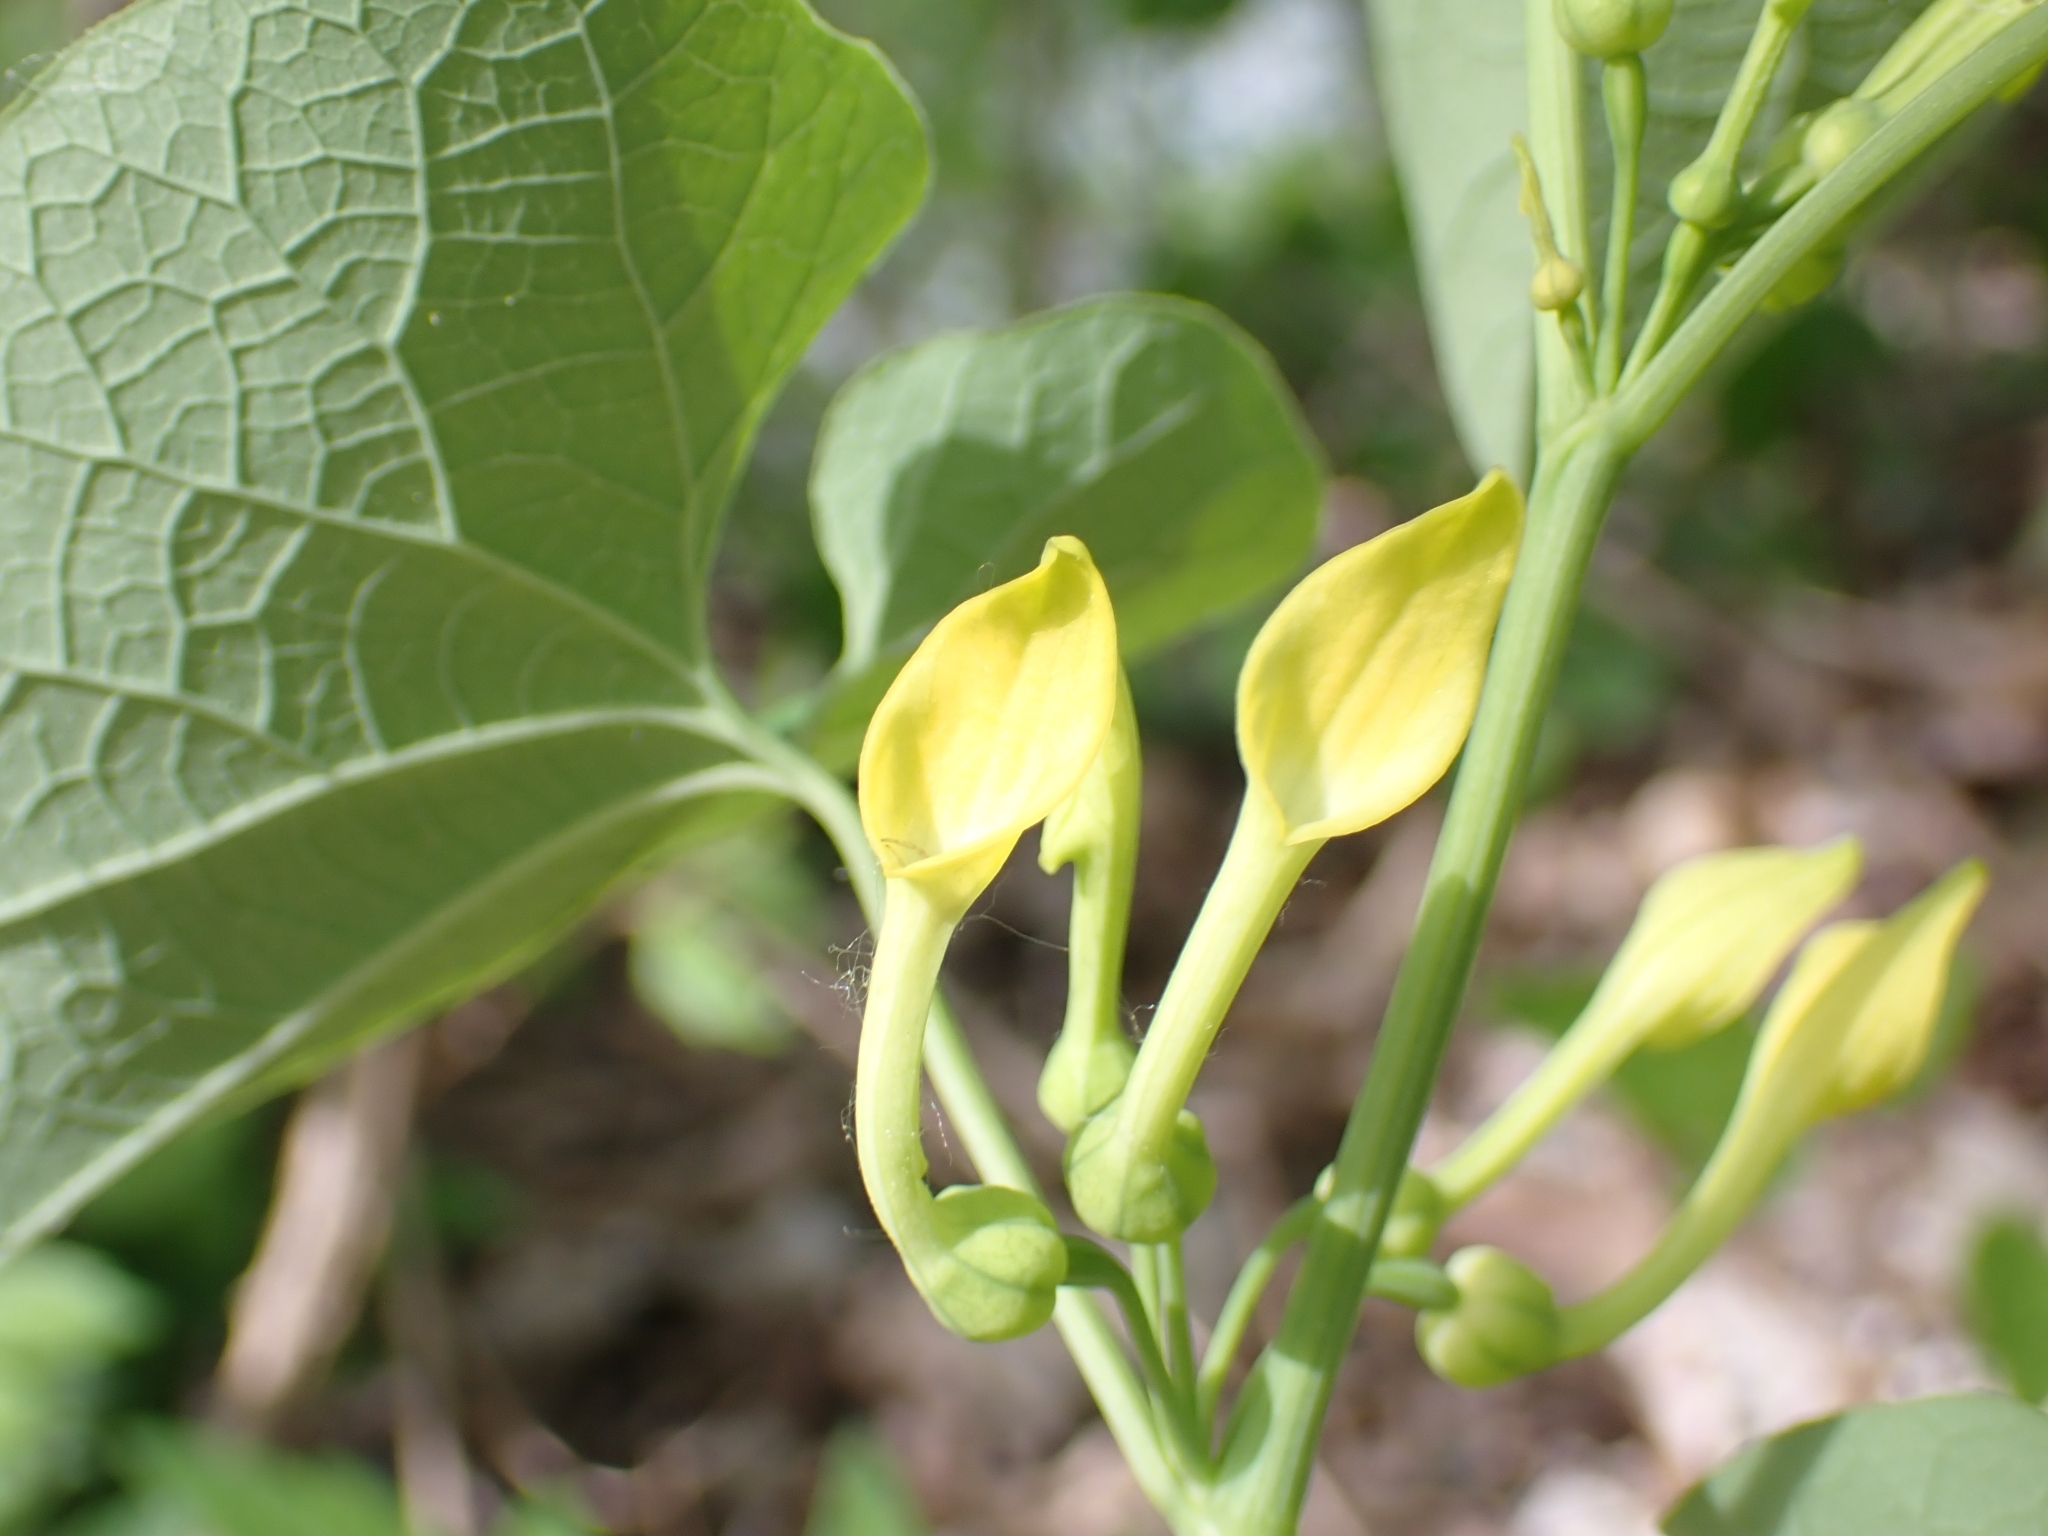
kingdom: Plantae
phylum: Tracheophyta
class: Magnoliopsida
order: Piperales
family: Aristolochiaceae
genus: Aristolochia
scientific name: Aristolochia clematitis
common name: Birthwort
